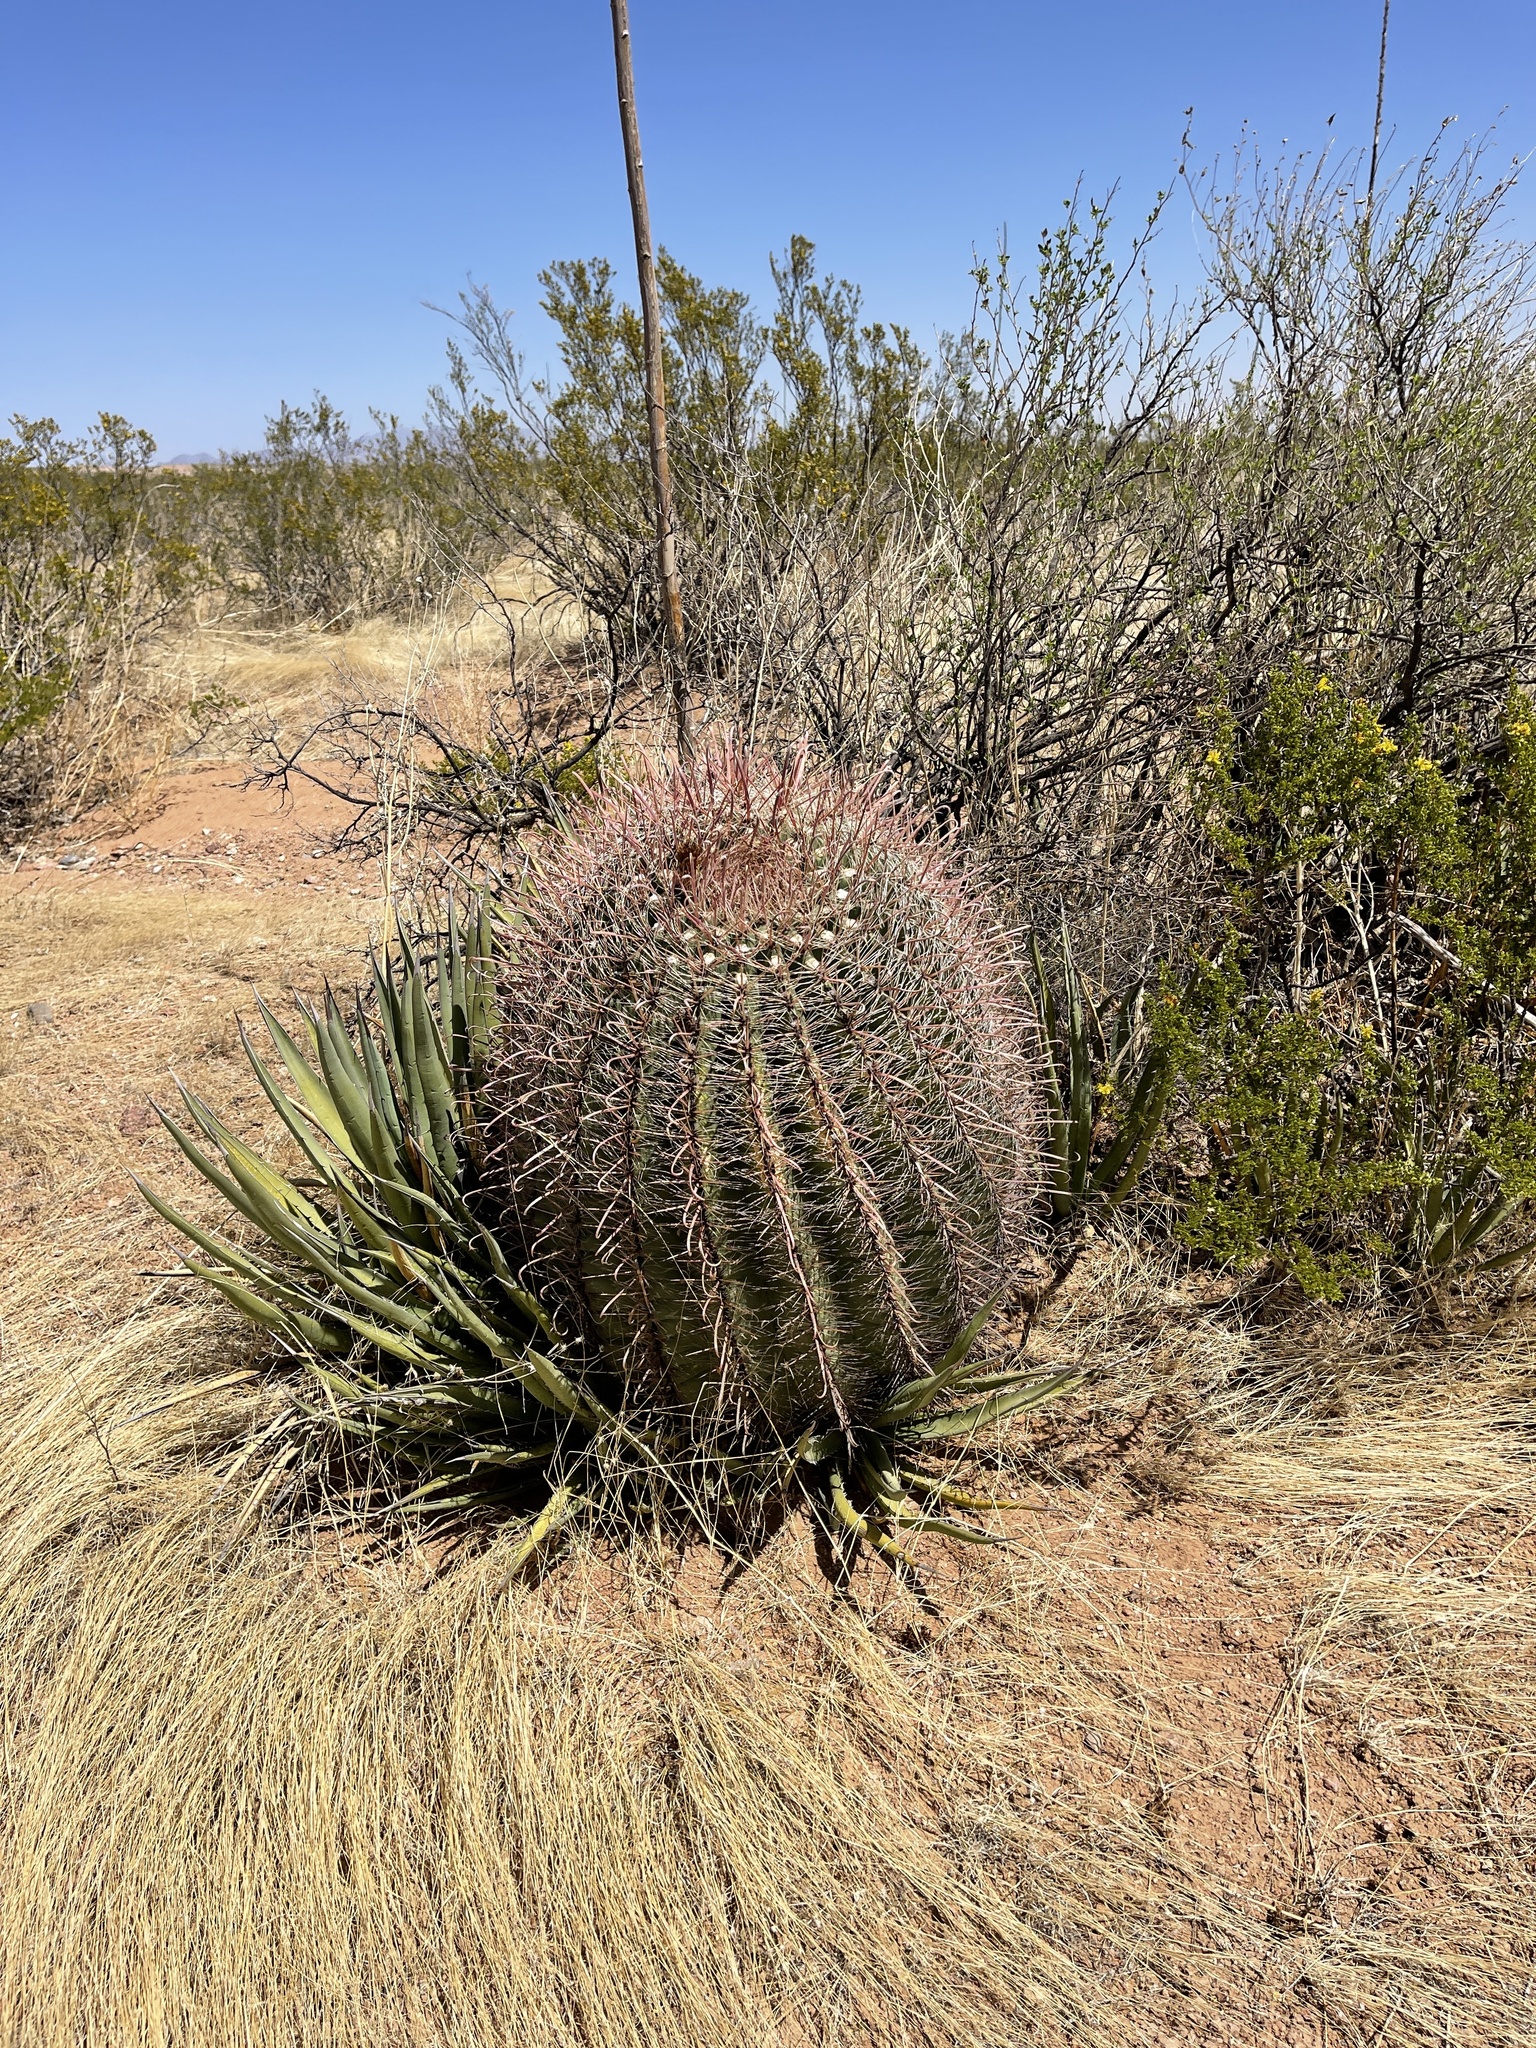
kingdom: Plantae
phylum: Tracheophyta
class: Magnoliopsida
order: Caryophyllales
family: Cactaceae
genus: Ferocactus
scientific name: Ferocactus wislizeni
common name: Candy barrel cactus
